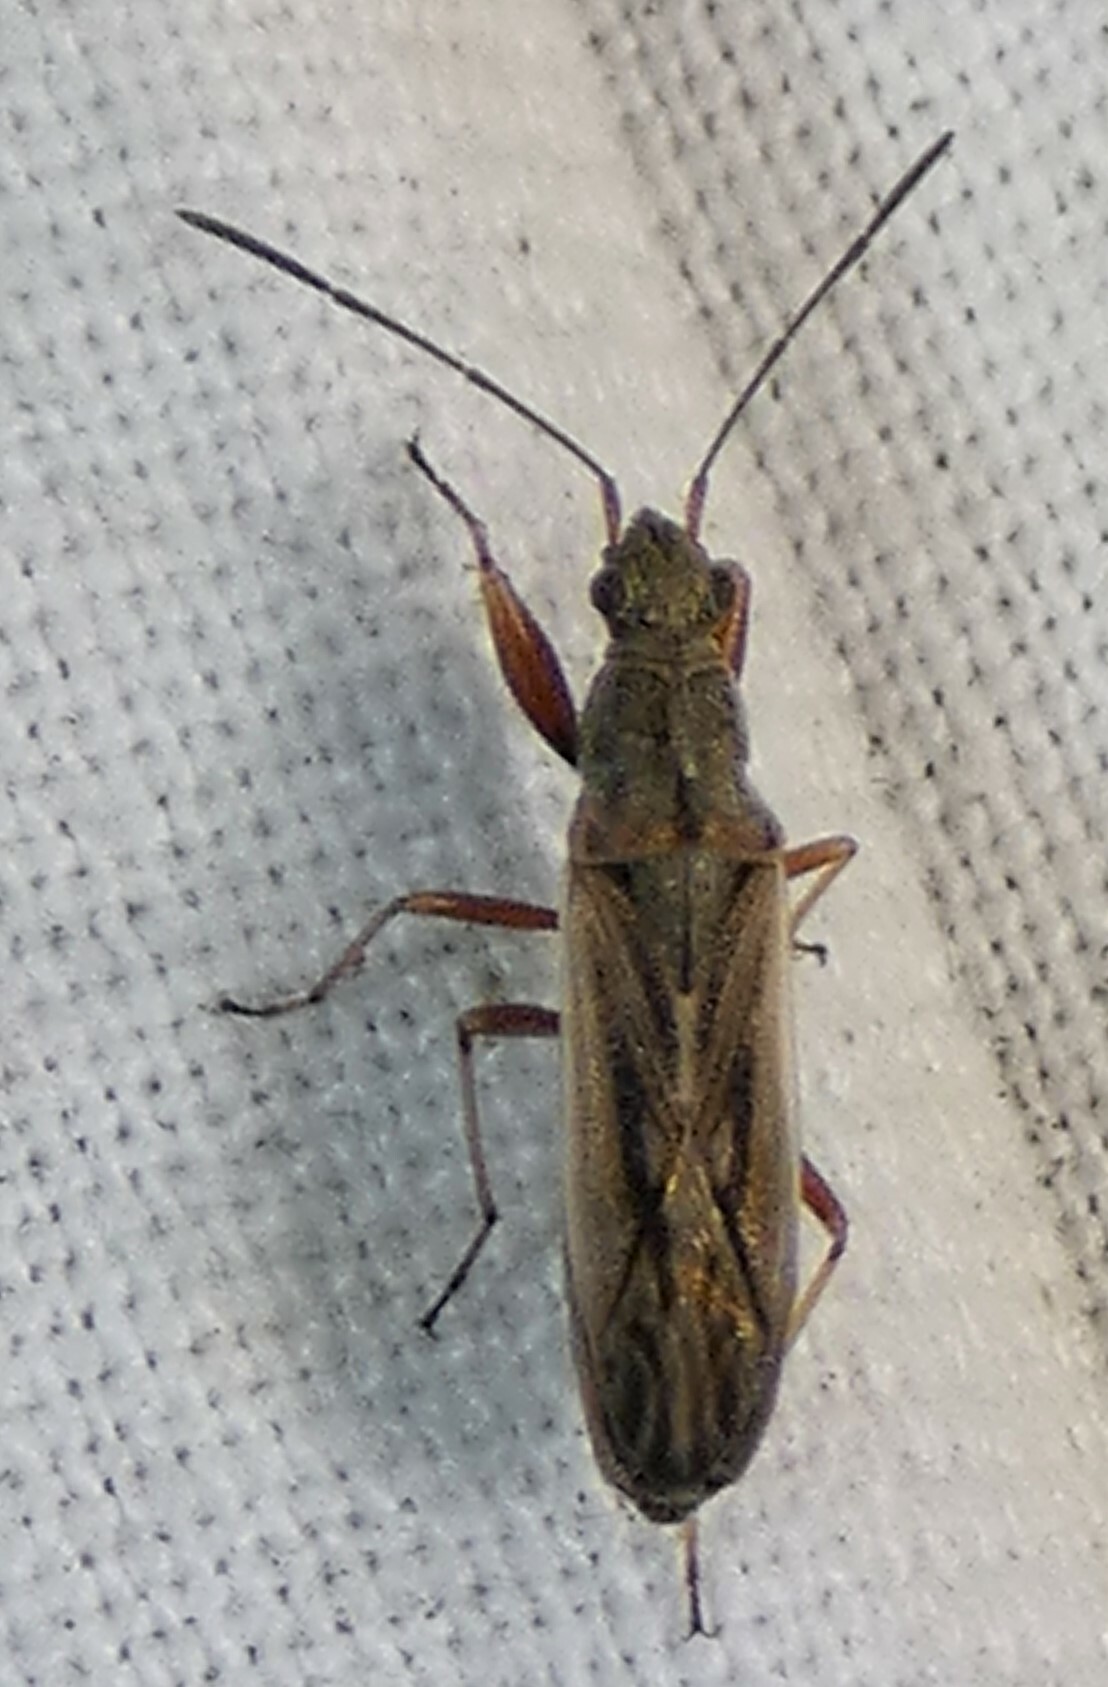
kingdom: Animalia
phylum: Arthropoda
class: Insecta
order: Hemiptera
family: Rhyparochromidae
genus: Paromius
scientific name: Paromius longulus
